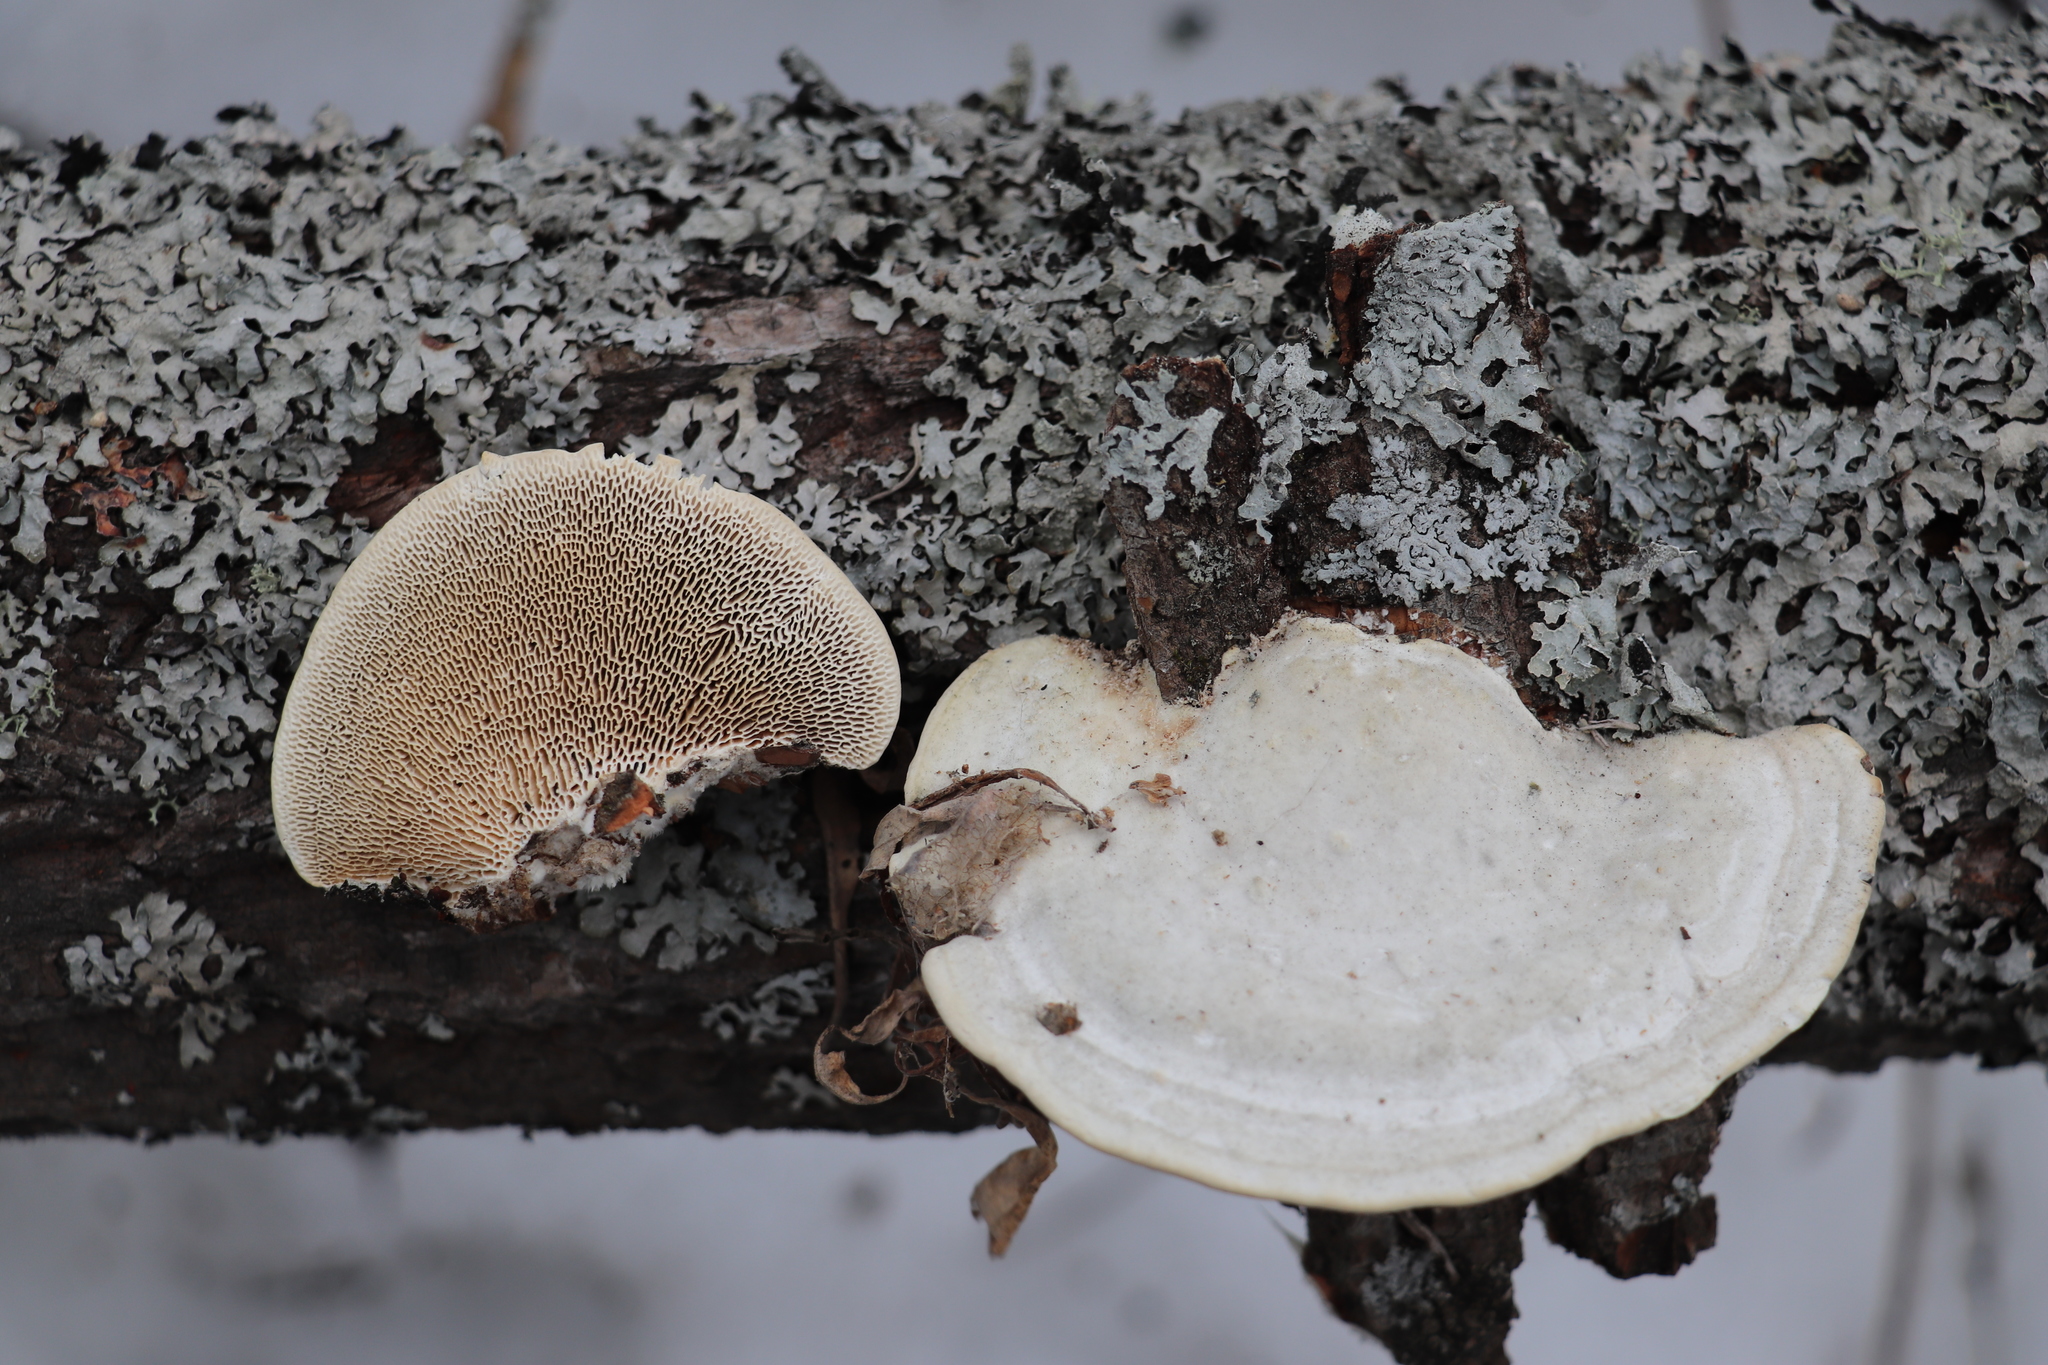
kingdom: Fungi
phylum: Basidiomycota
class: Agaricomycetes
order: Polyporales
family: Polyporaceae
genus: Trametes
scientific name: Trametes gibbosa
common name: Lumpy bracket
